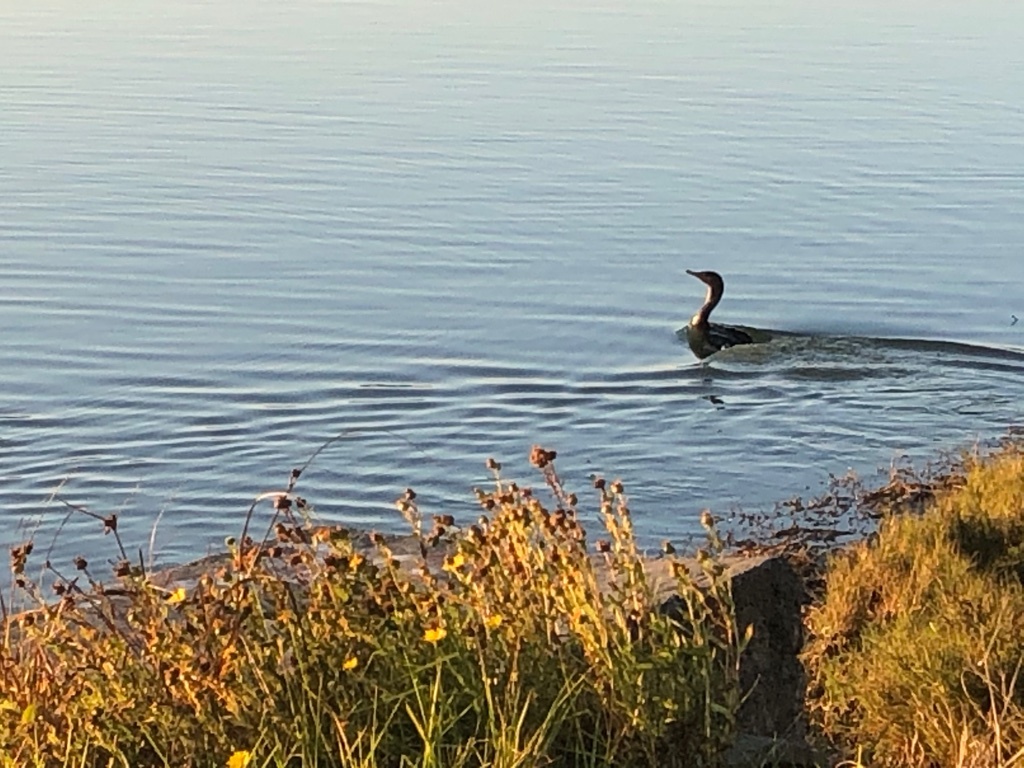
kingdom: Animalia
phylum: Chordata
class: Aves
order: Suliformes
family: Phalacrocoracidae
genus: Phalacrocorax
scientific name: Phalacrocorax auritus
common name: Double-crested cormorant
